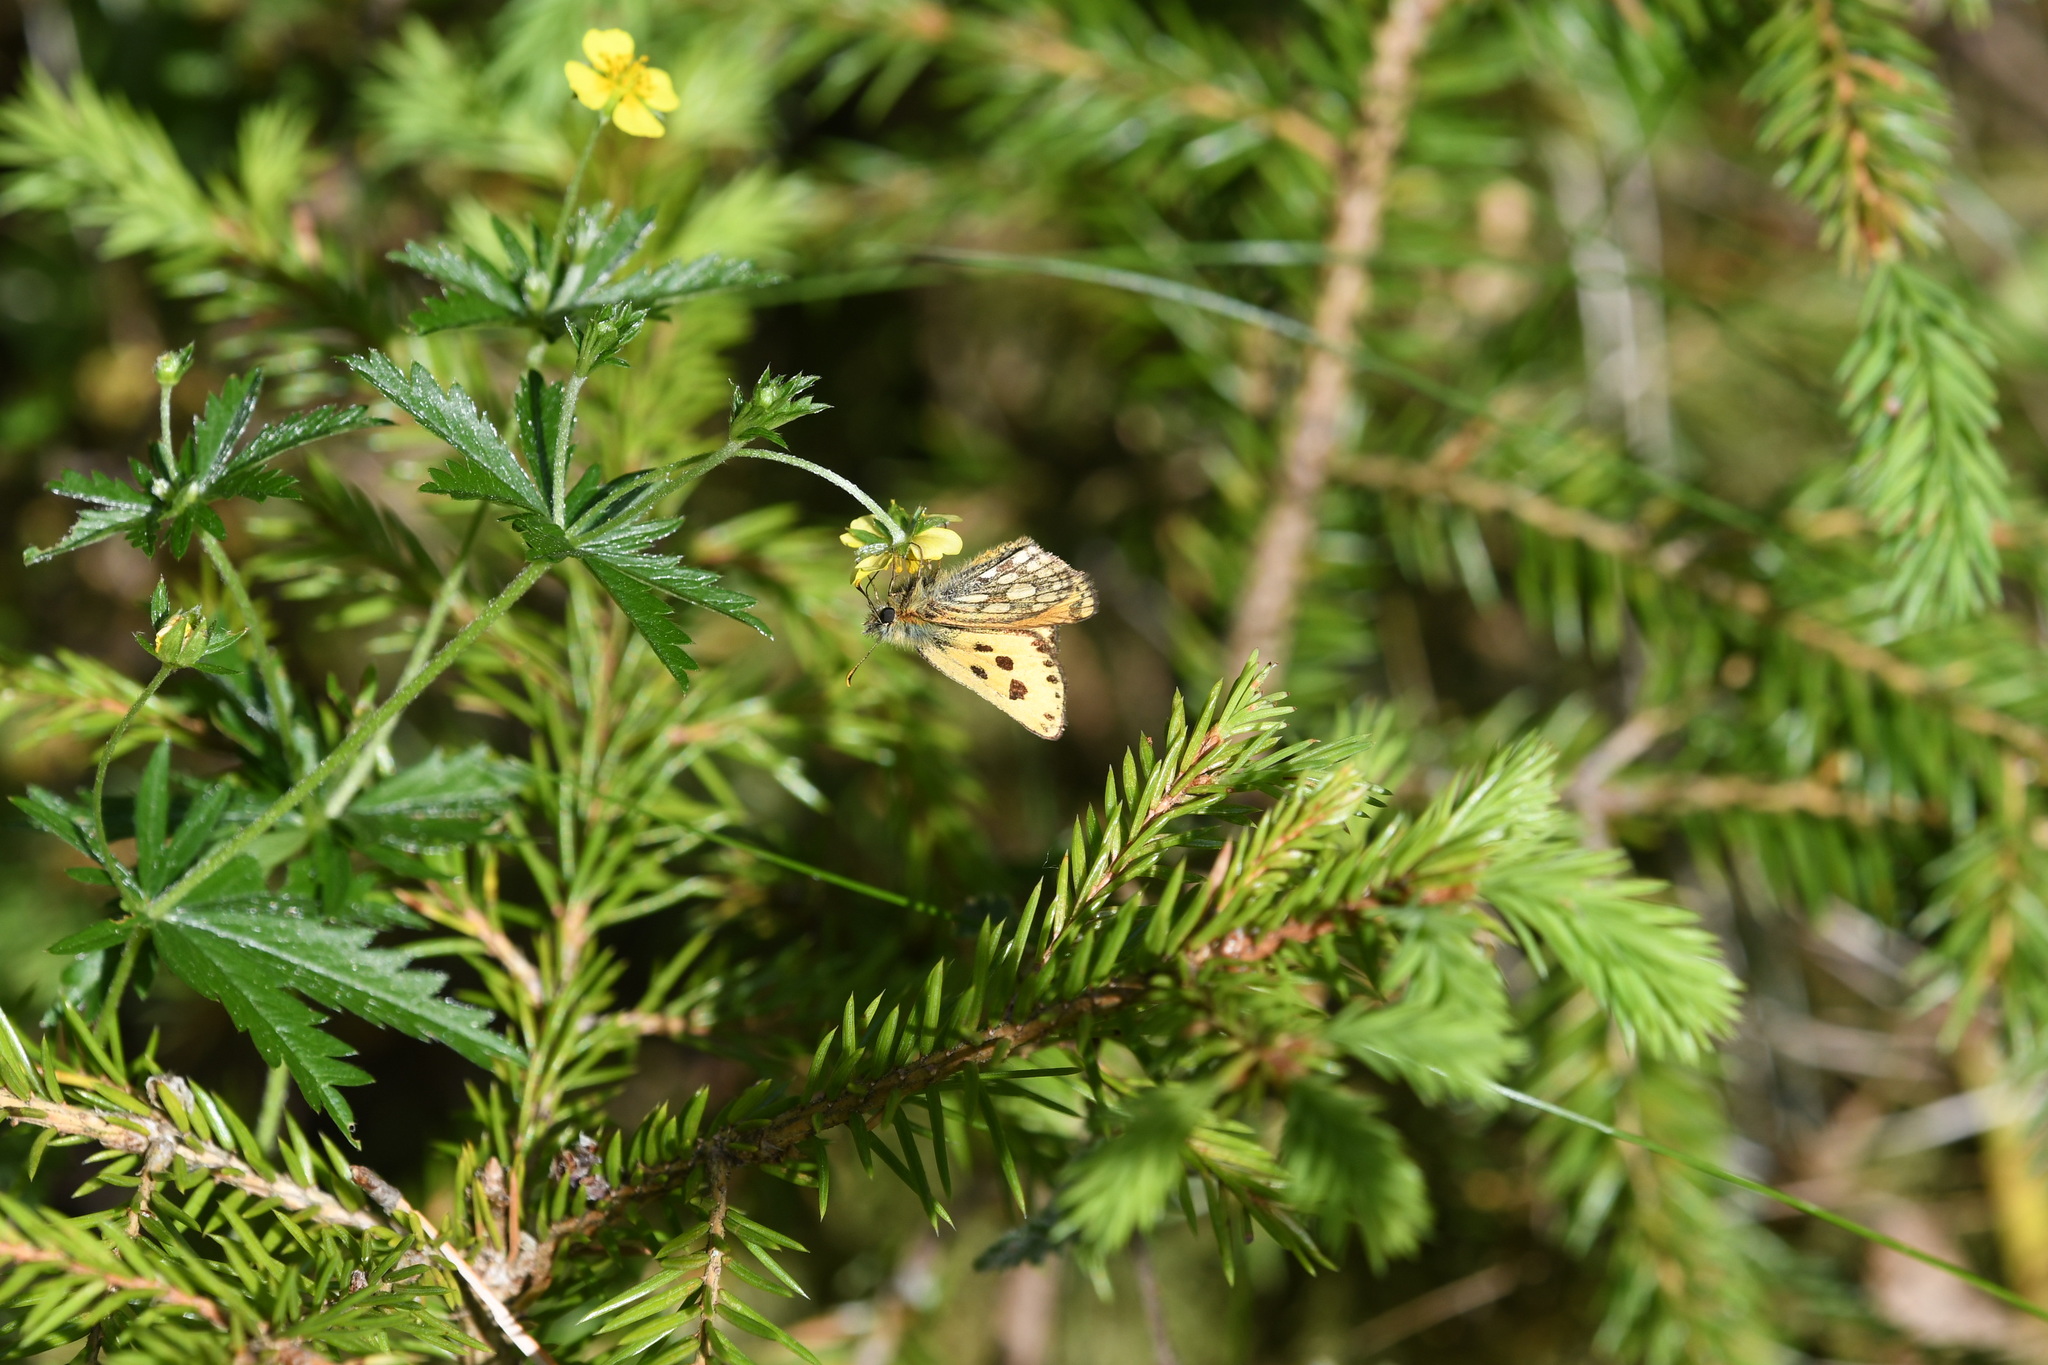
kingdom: Animalia
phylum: Arthropoda
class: Insecta
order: Lepidoptera
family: Hesperiidae
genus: Carterocephalus
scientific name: Carterocephalus silvicola
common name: Northern chequered skipper
